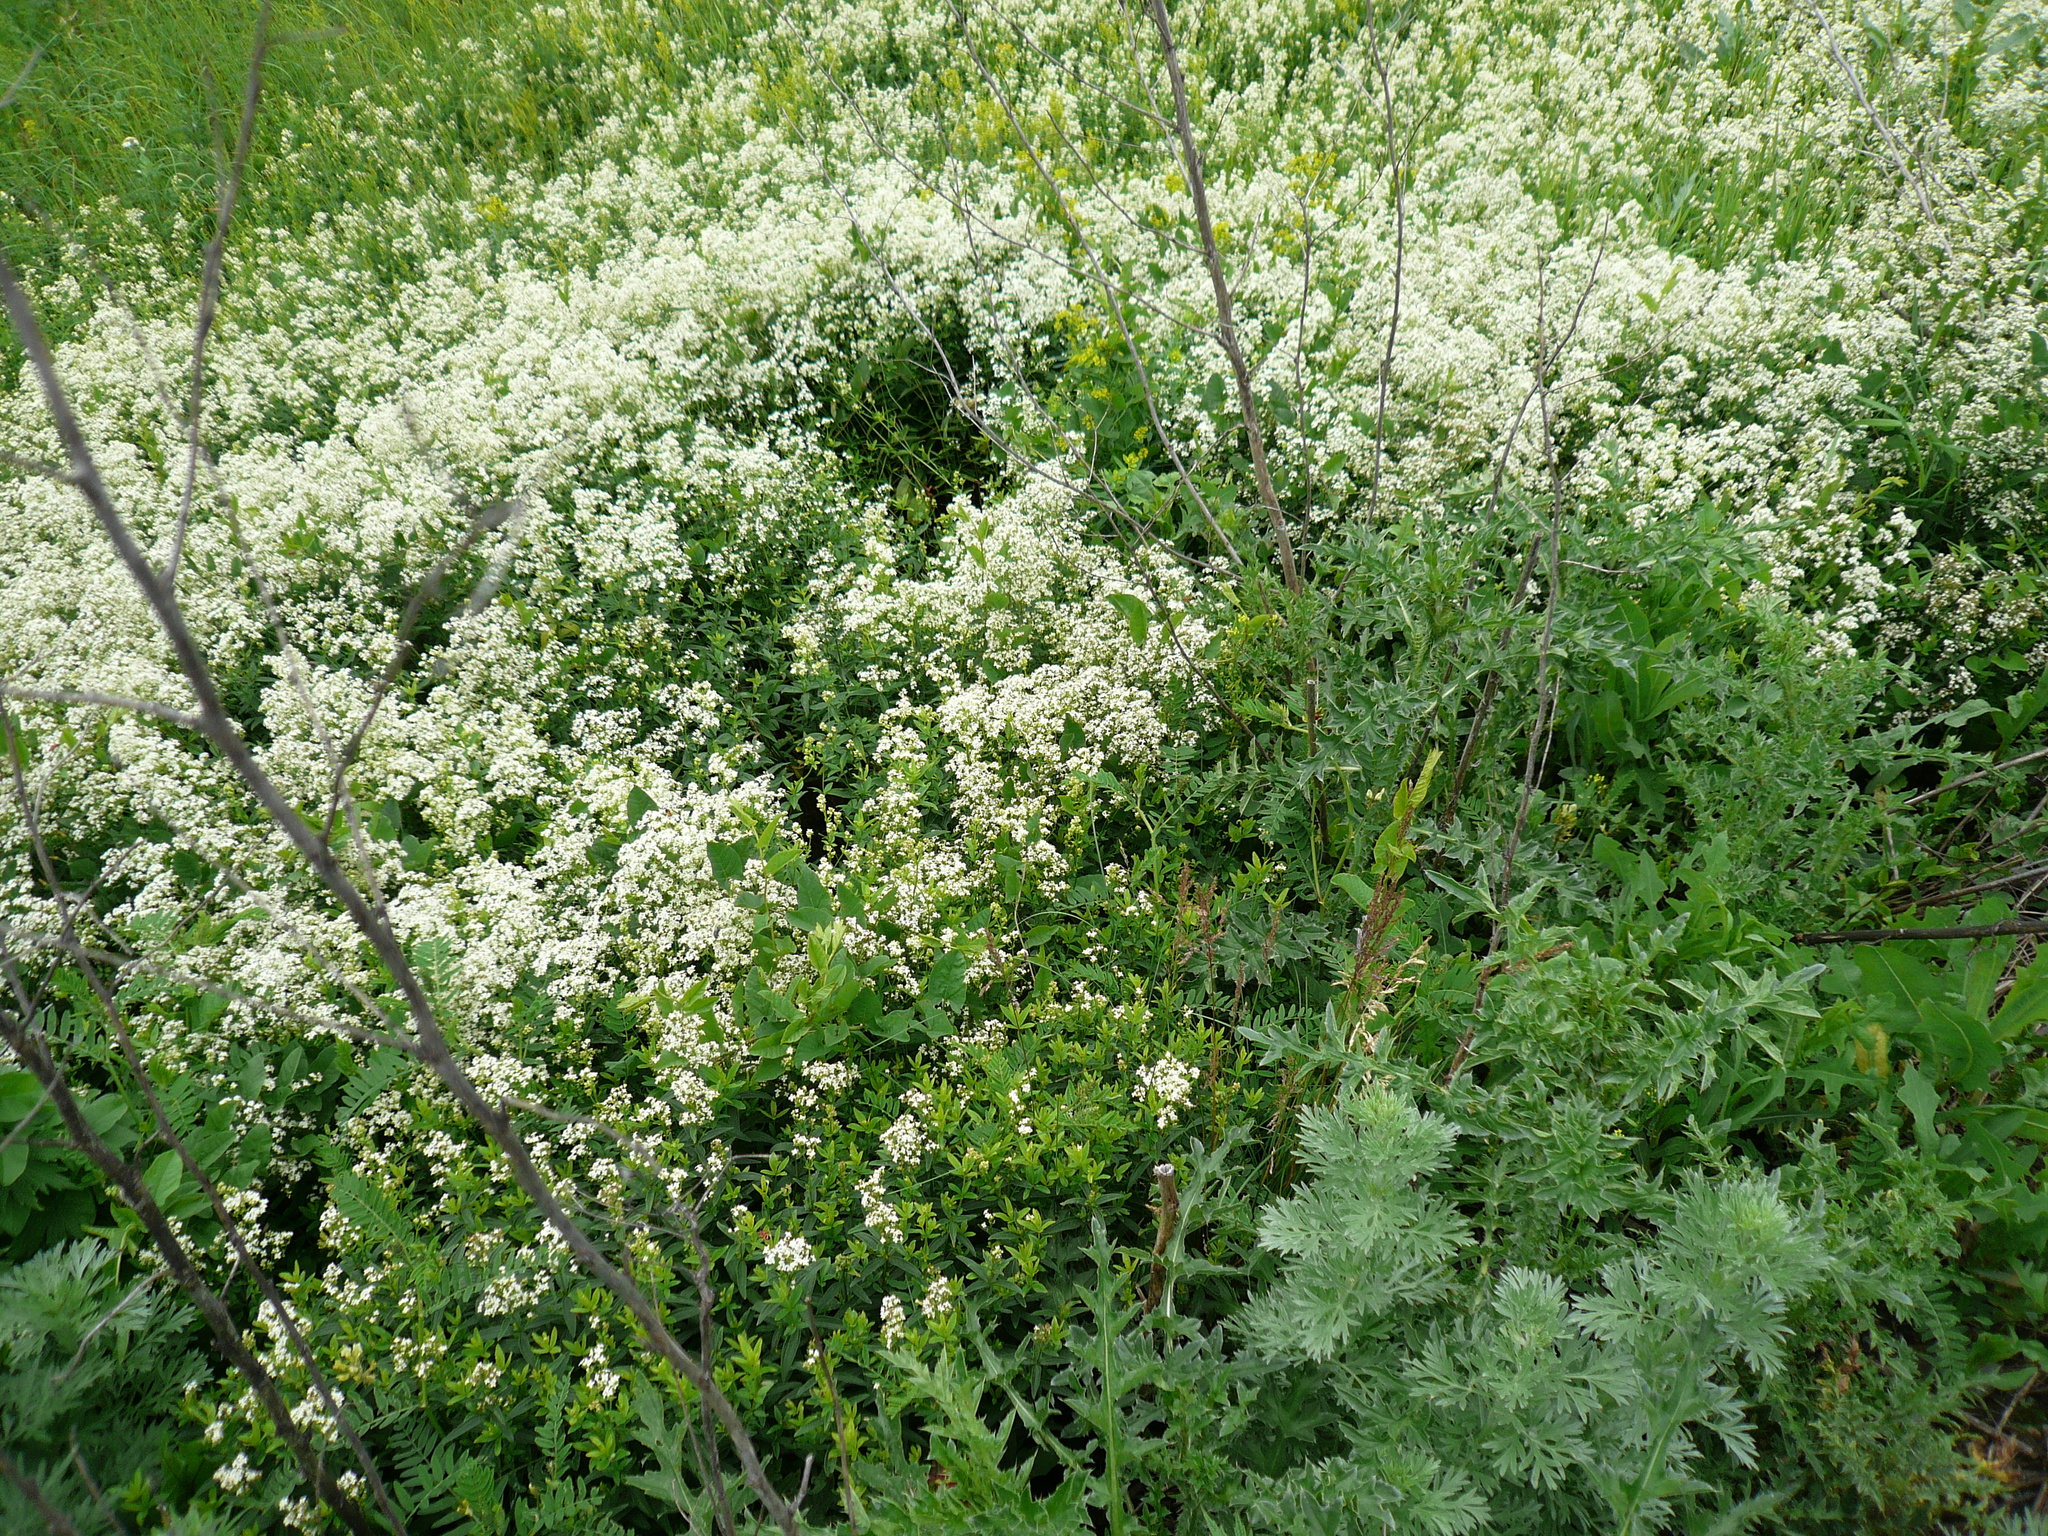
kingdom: Plantae
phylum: Tracheophyta
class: Magnoliopsida
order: Gentianales
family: Rubiaceae
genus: Galium
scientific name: Galium boreale
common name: Northern bedstraw
